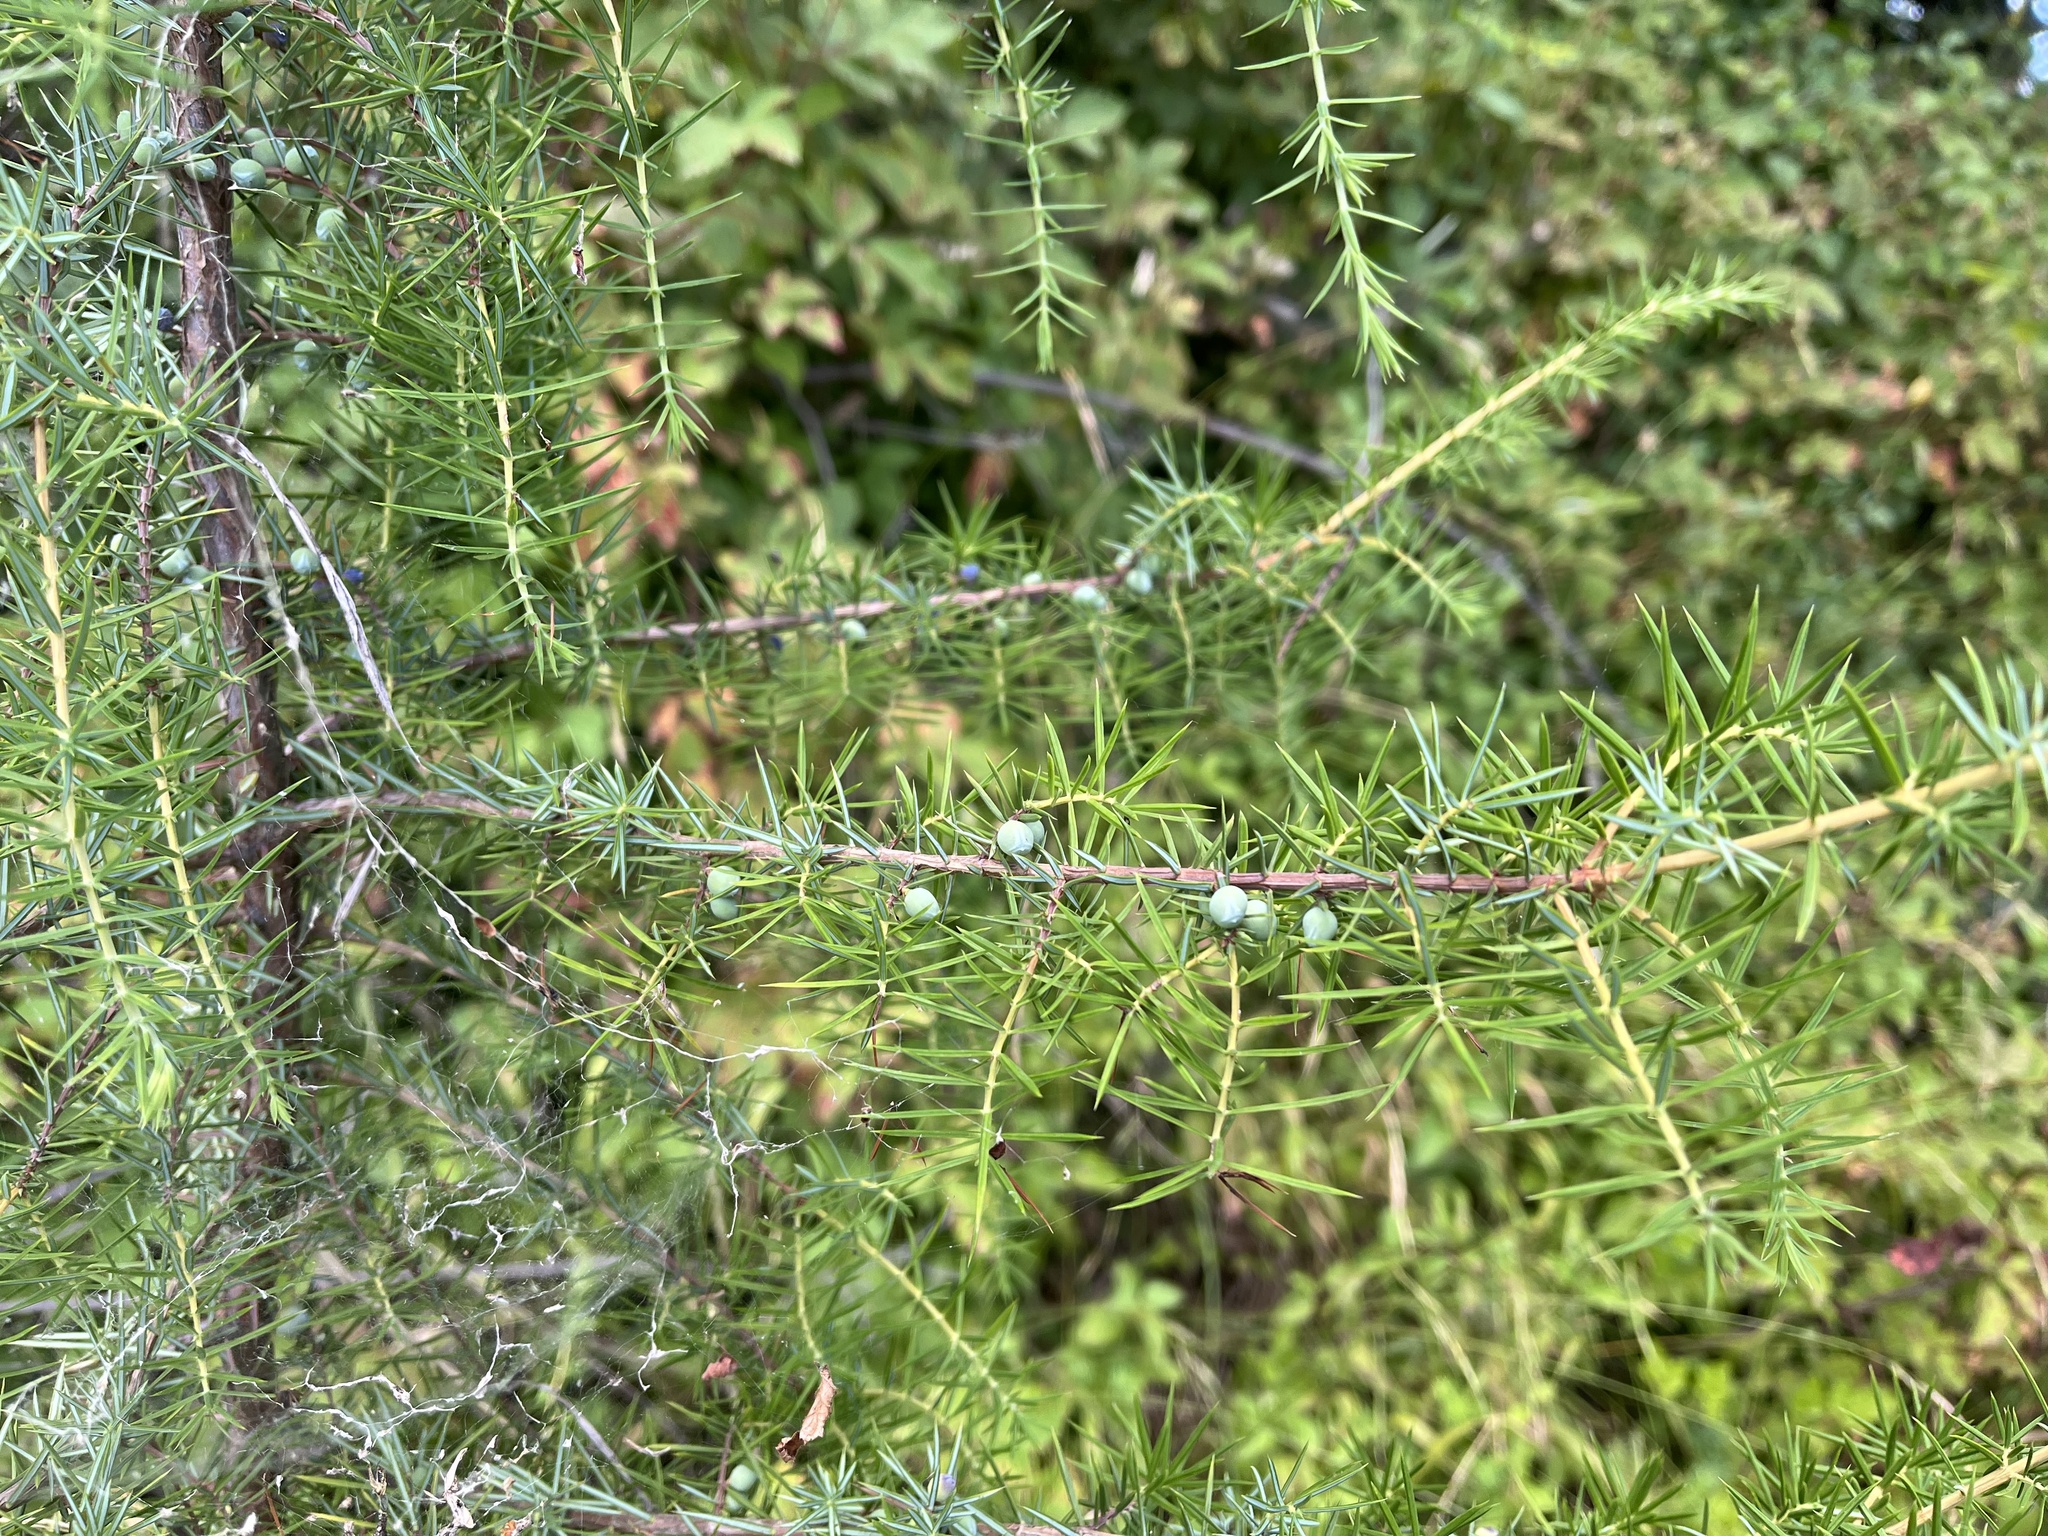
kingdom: Plantae
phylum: Tracheophyta
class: Pinopsida
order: Pinales
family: Cupressaceae
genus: Juniperus
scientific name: Juniperus communis
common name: Common juniper
